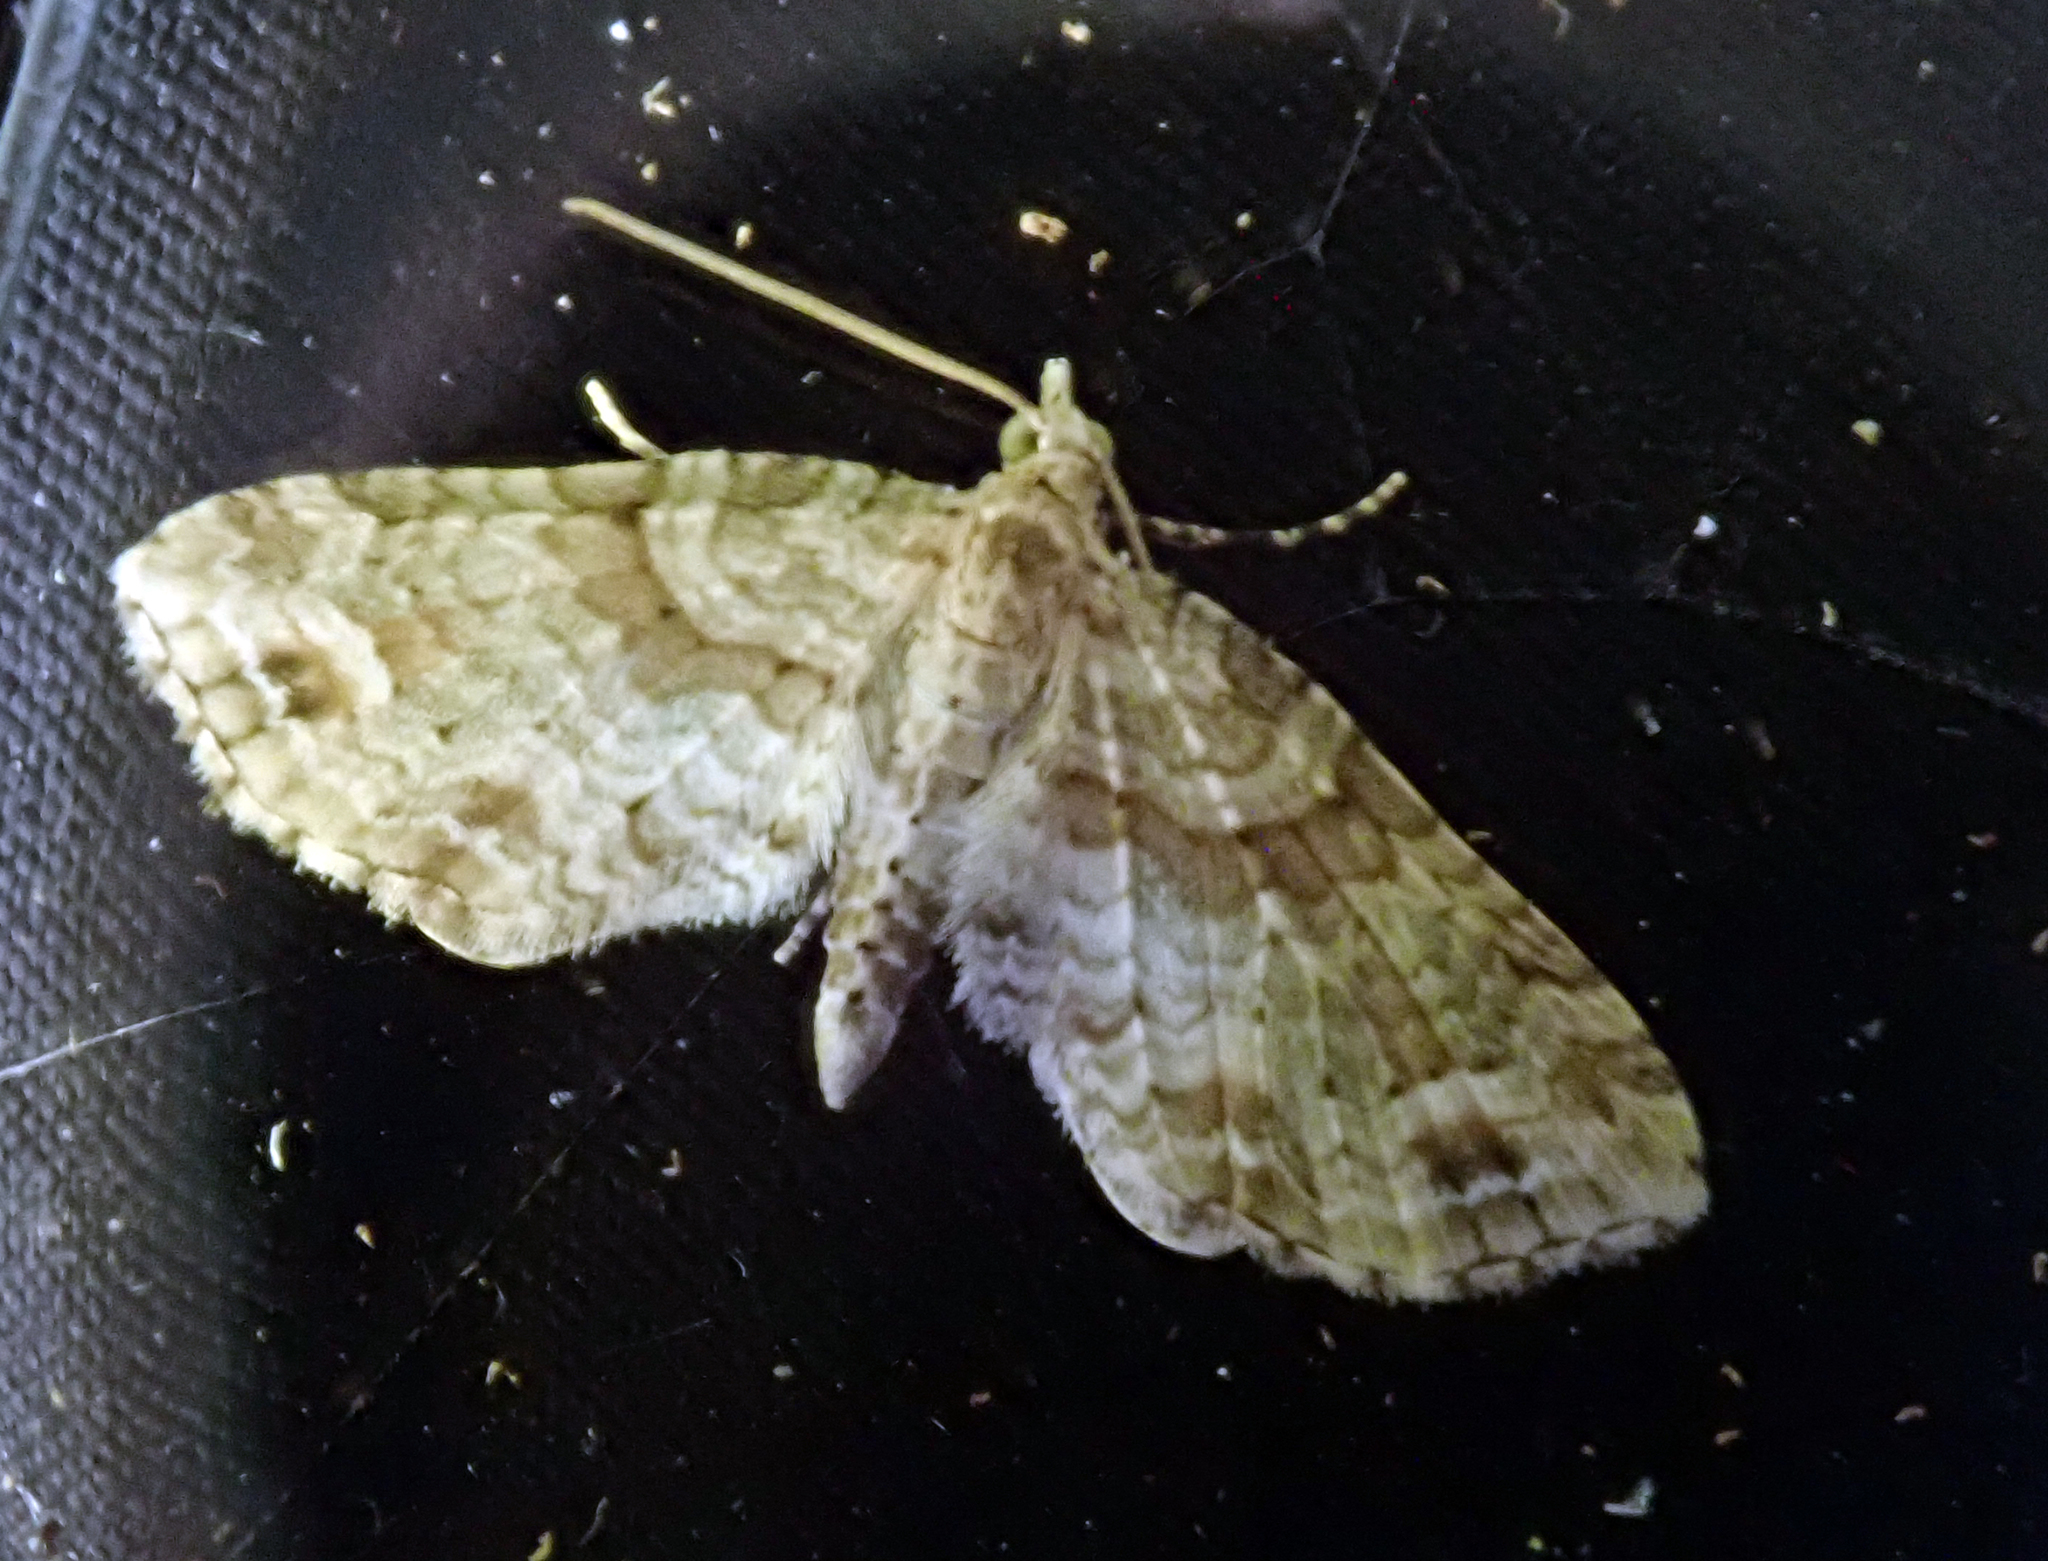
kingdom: Animalia
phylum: Arthropoda
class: Insecta
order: Lepidoptera
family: Geometridae
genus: Idaea
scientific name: Idaea mutanda
